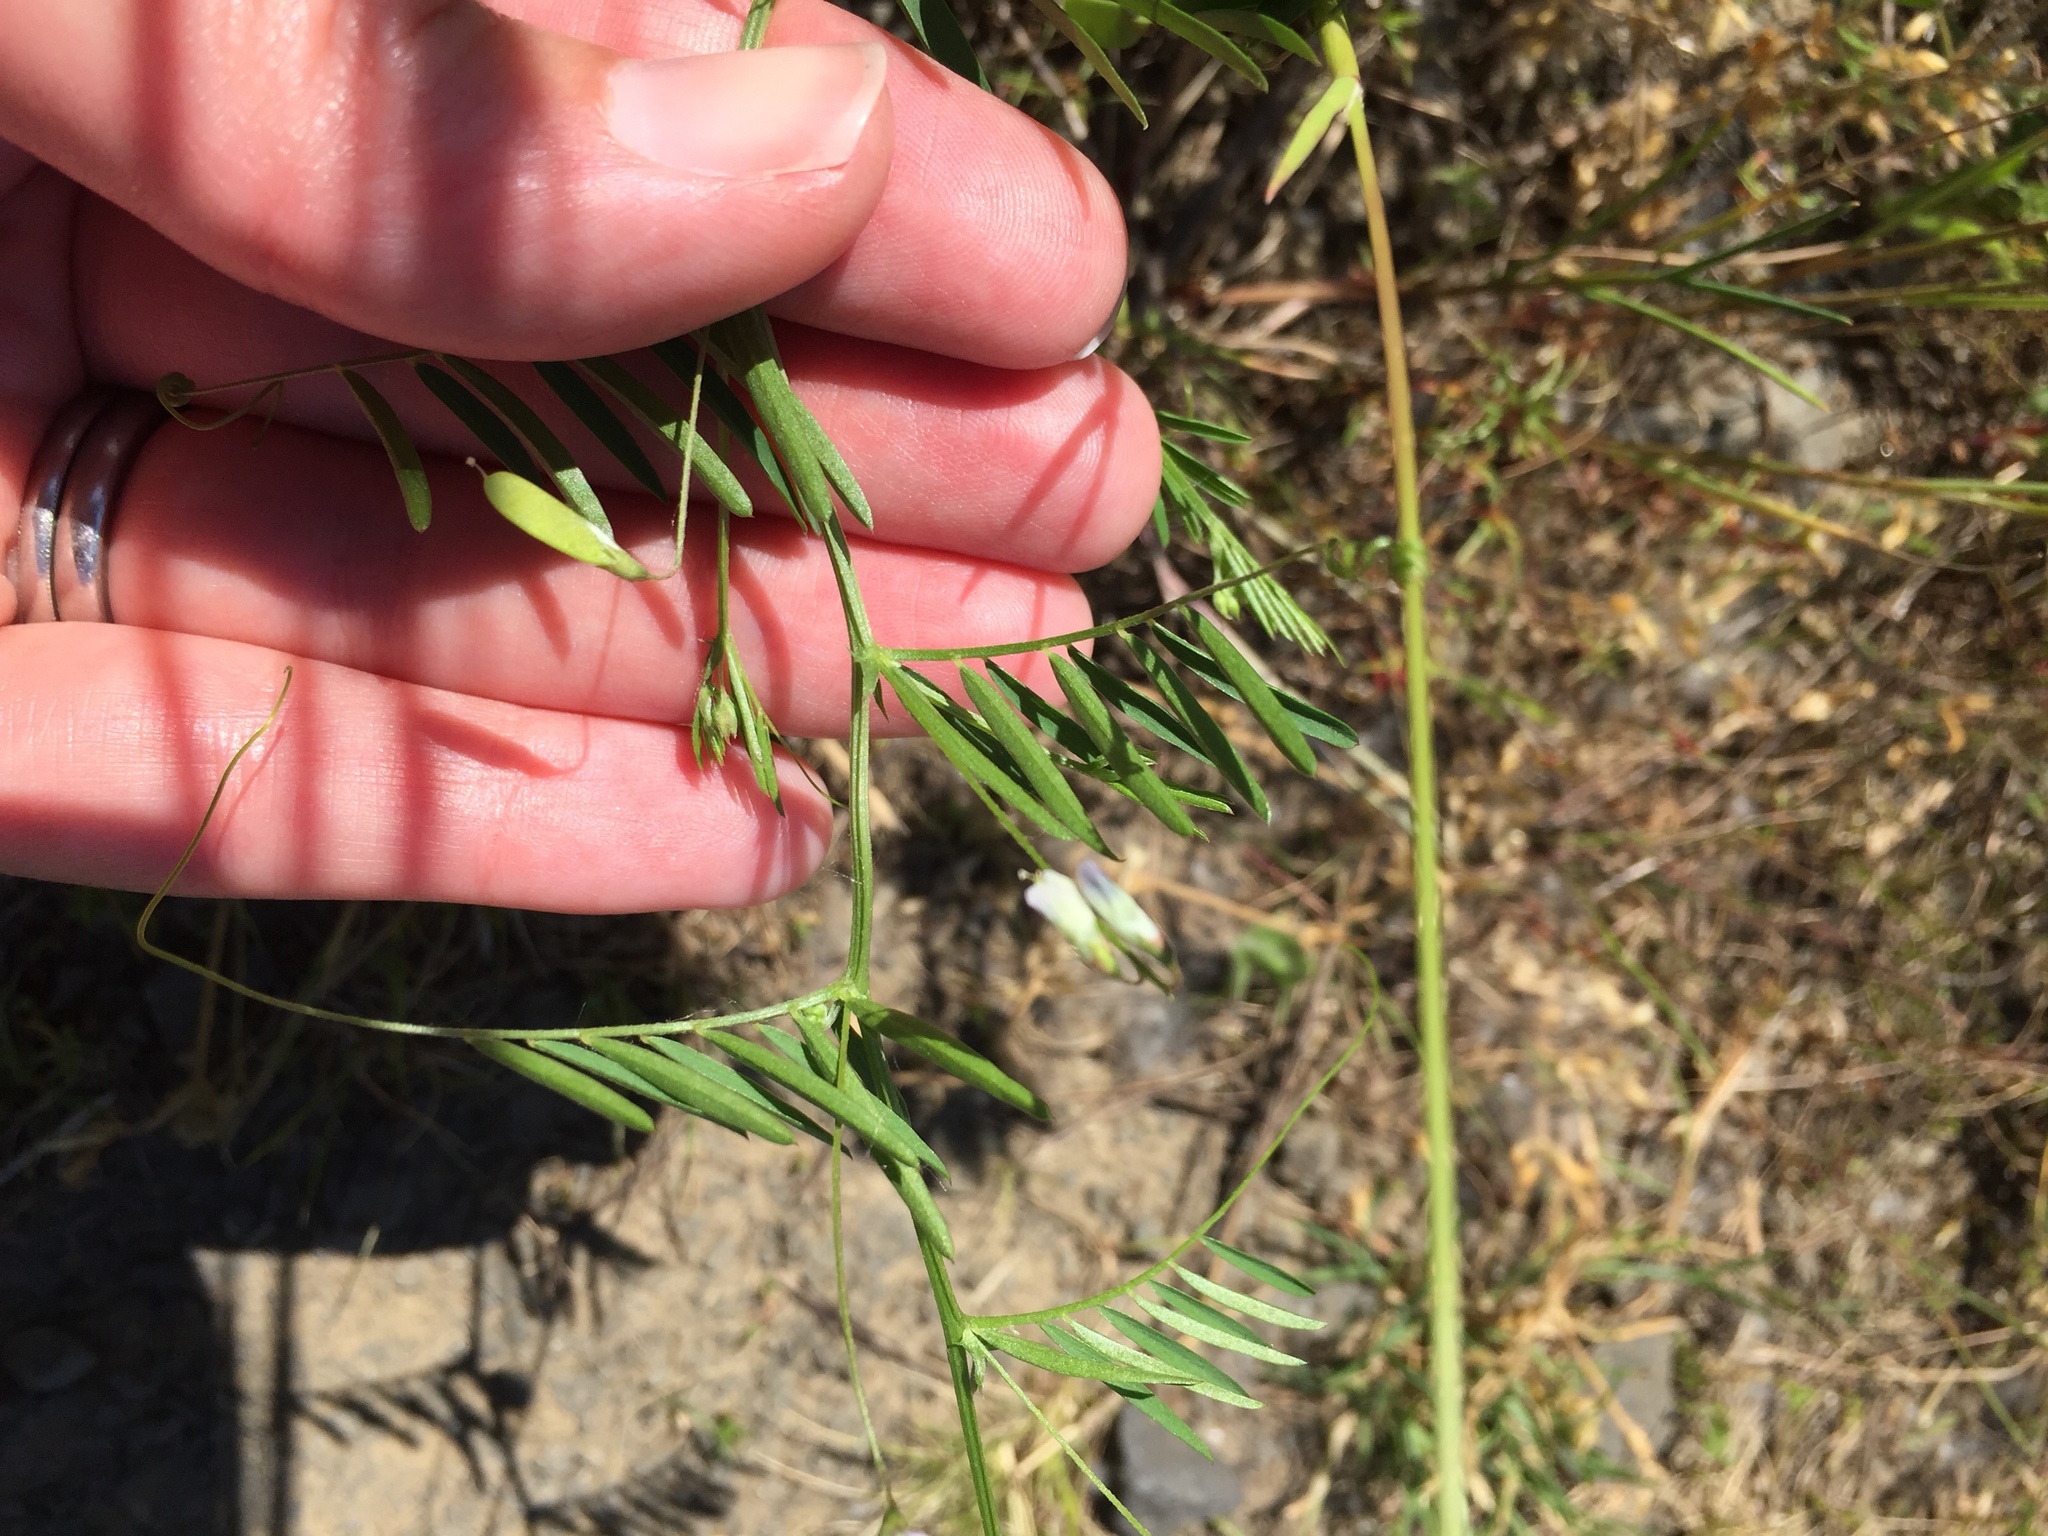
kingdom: Plantae
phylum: Tracheophyta
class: Magnoliopsida
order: Fabales
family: Fabaceae
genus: Vicia
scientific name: Vicia tetrasperma
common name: Smooth tare
